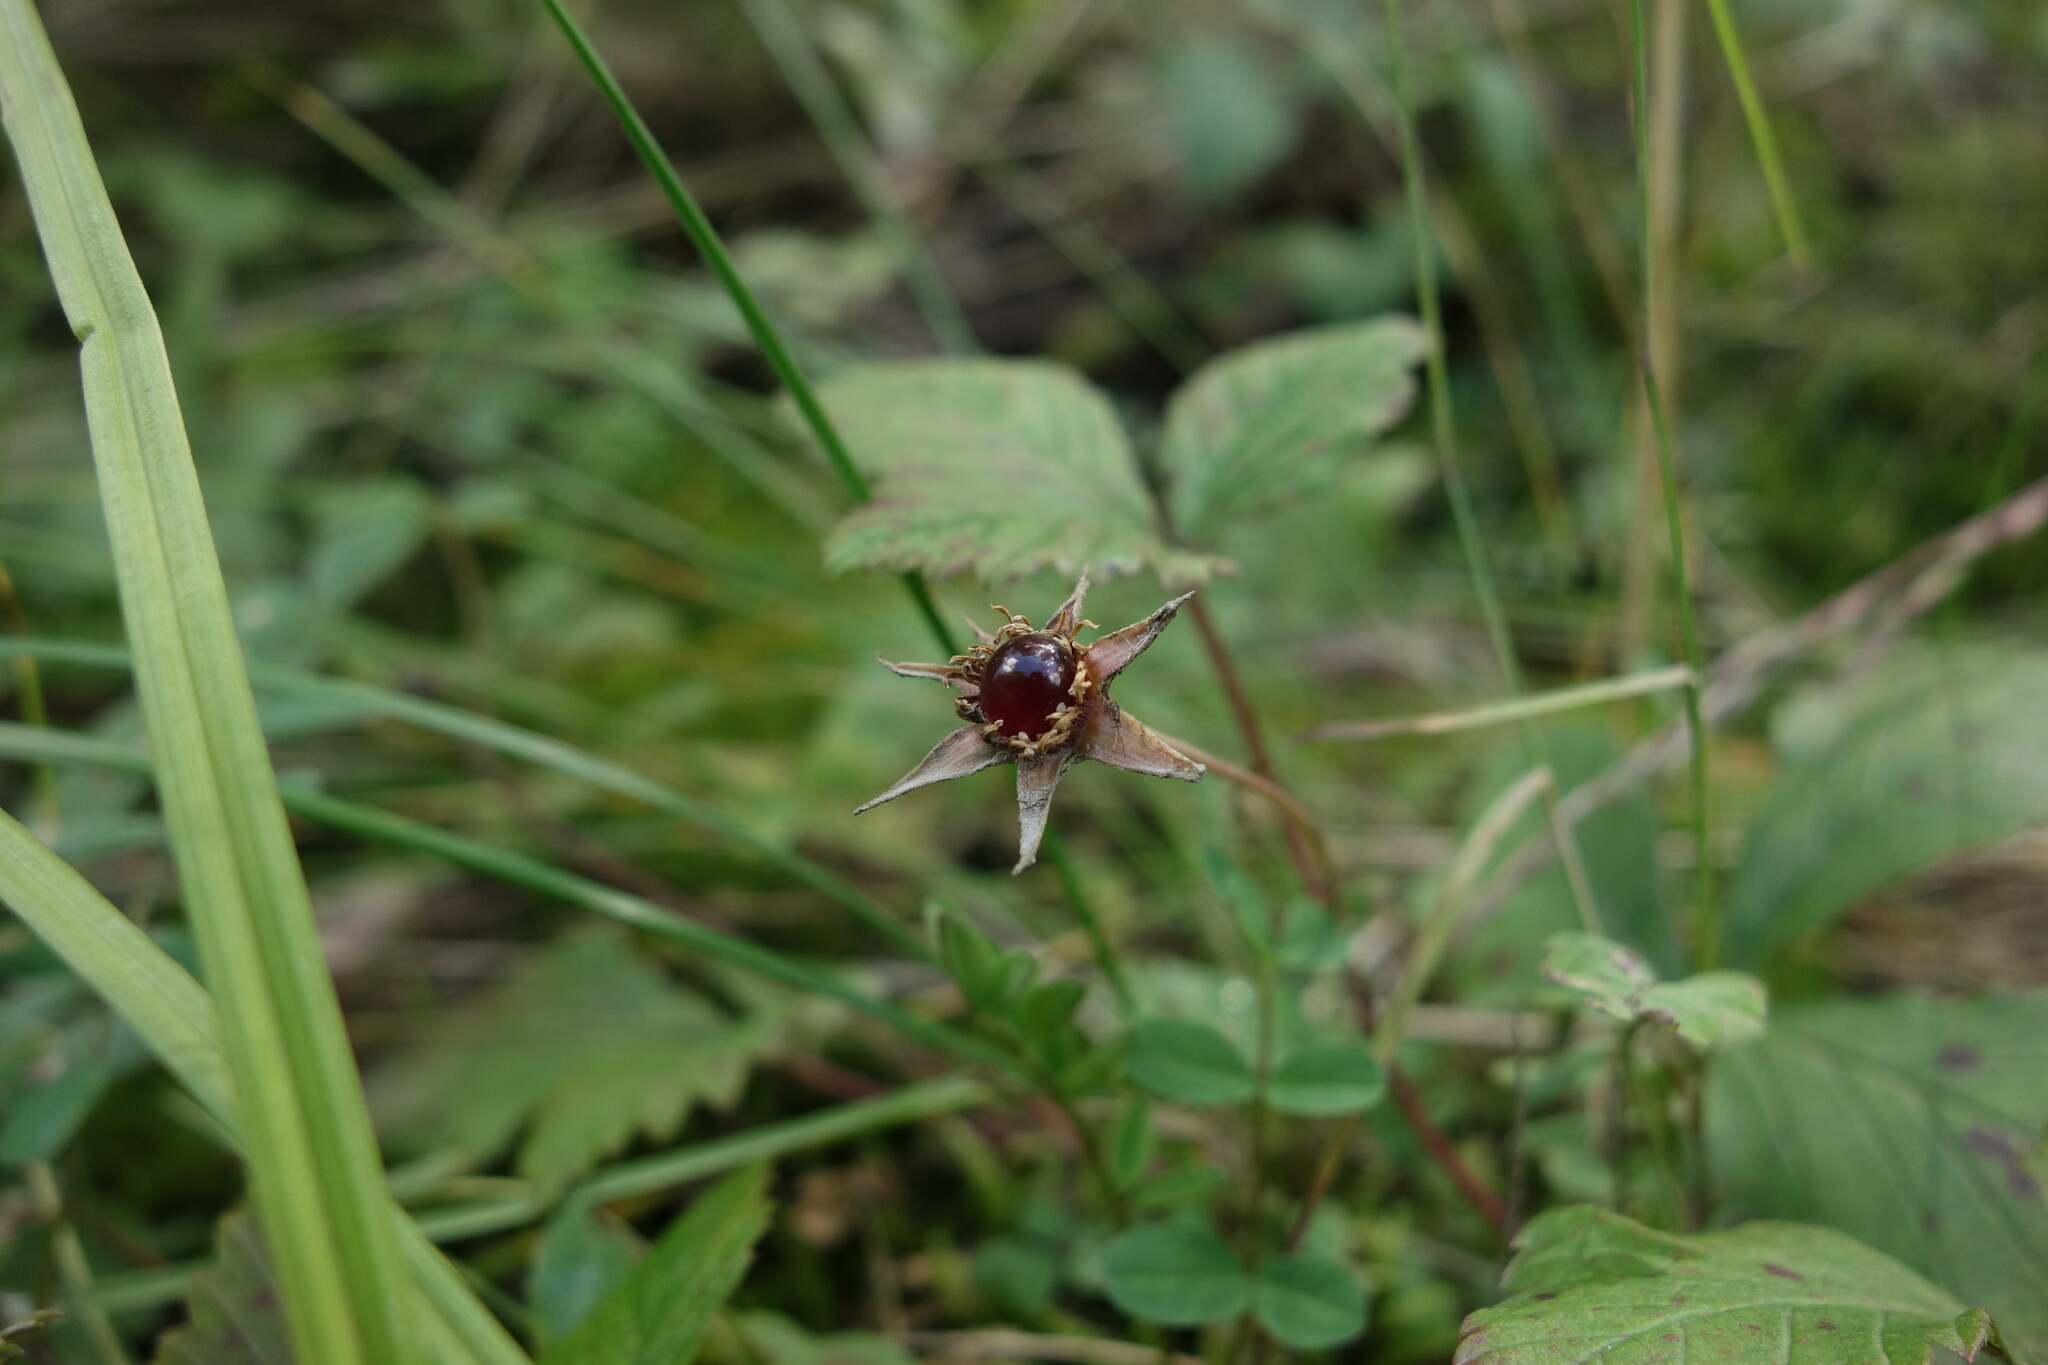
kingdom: Plantae
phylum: Tracheophyta
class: Magnoliopsida
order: Rosales
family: Rosaceae
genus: Rubus
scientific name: Rubus arcticus
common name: Arctic bramble
